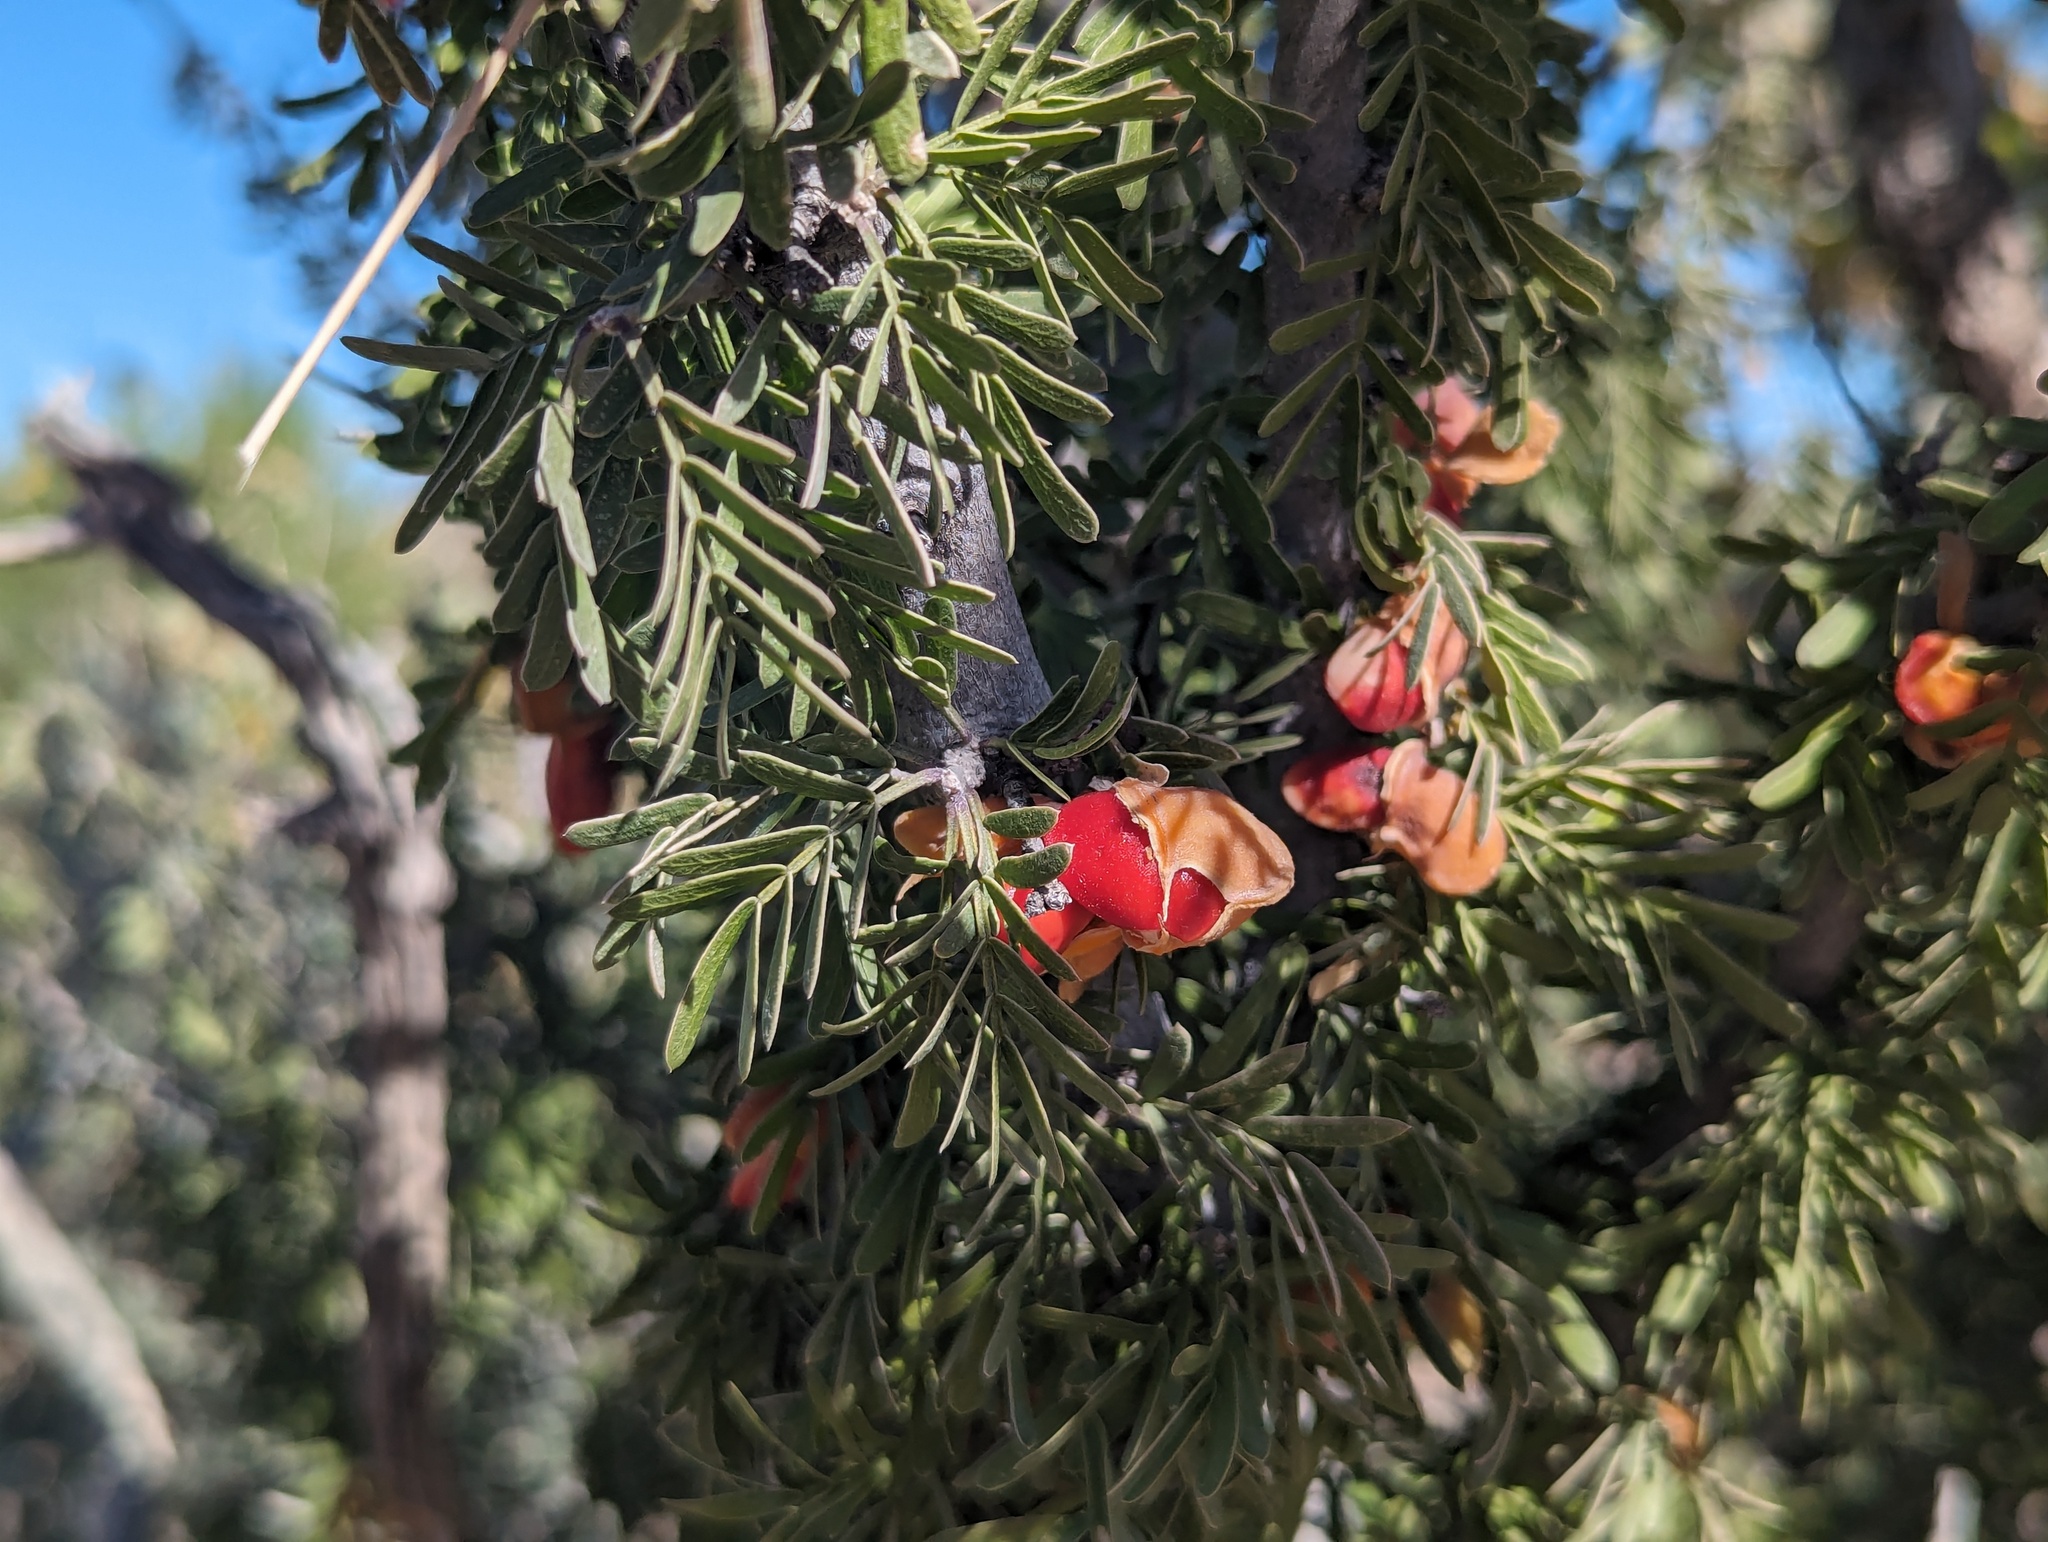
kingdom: Plantae
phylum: Tracheophyta
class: Magnoliopsida
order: Zygophyllales
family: Zygophyllaceae
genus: Porlieria
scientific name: Porlieria angustifolia
